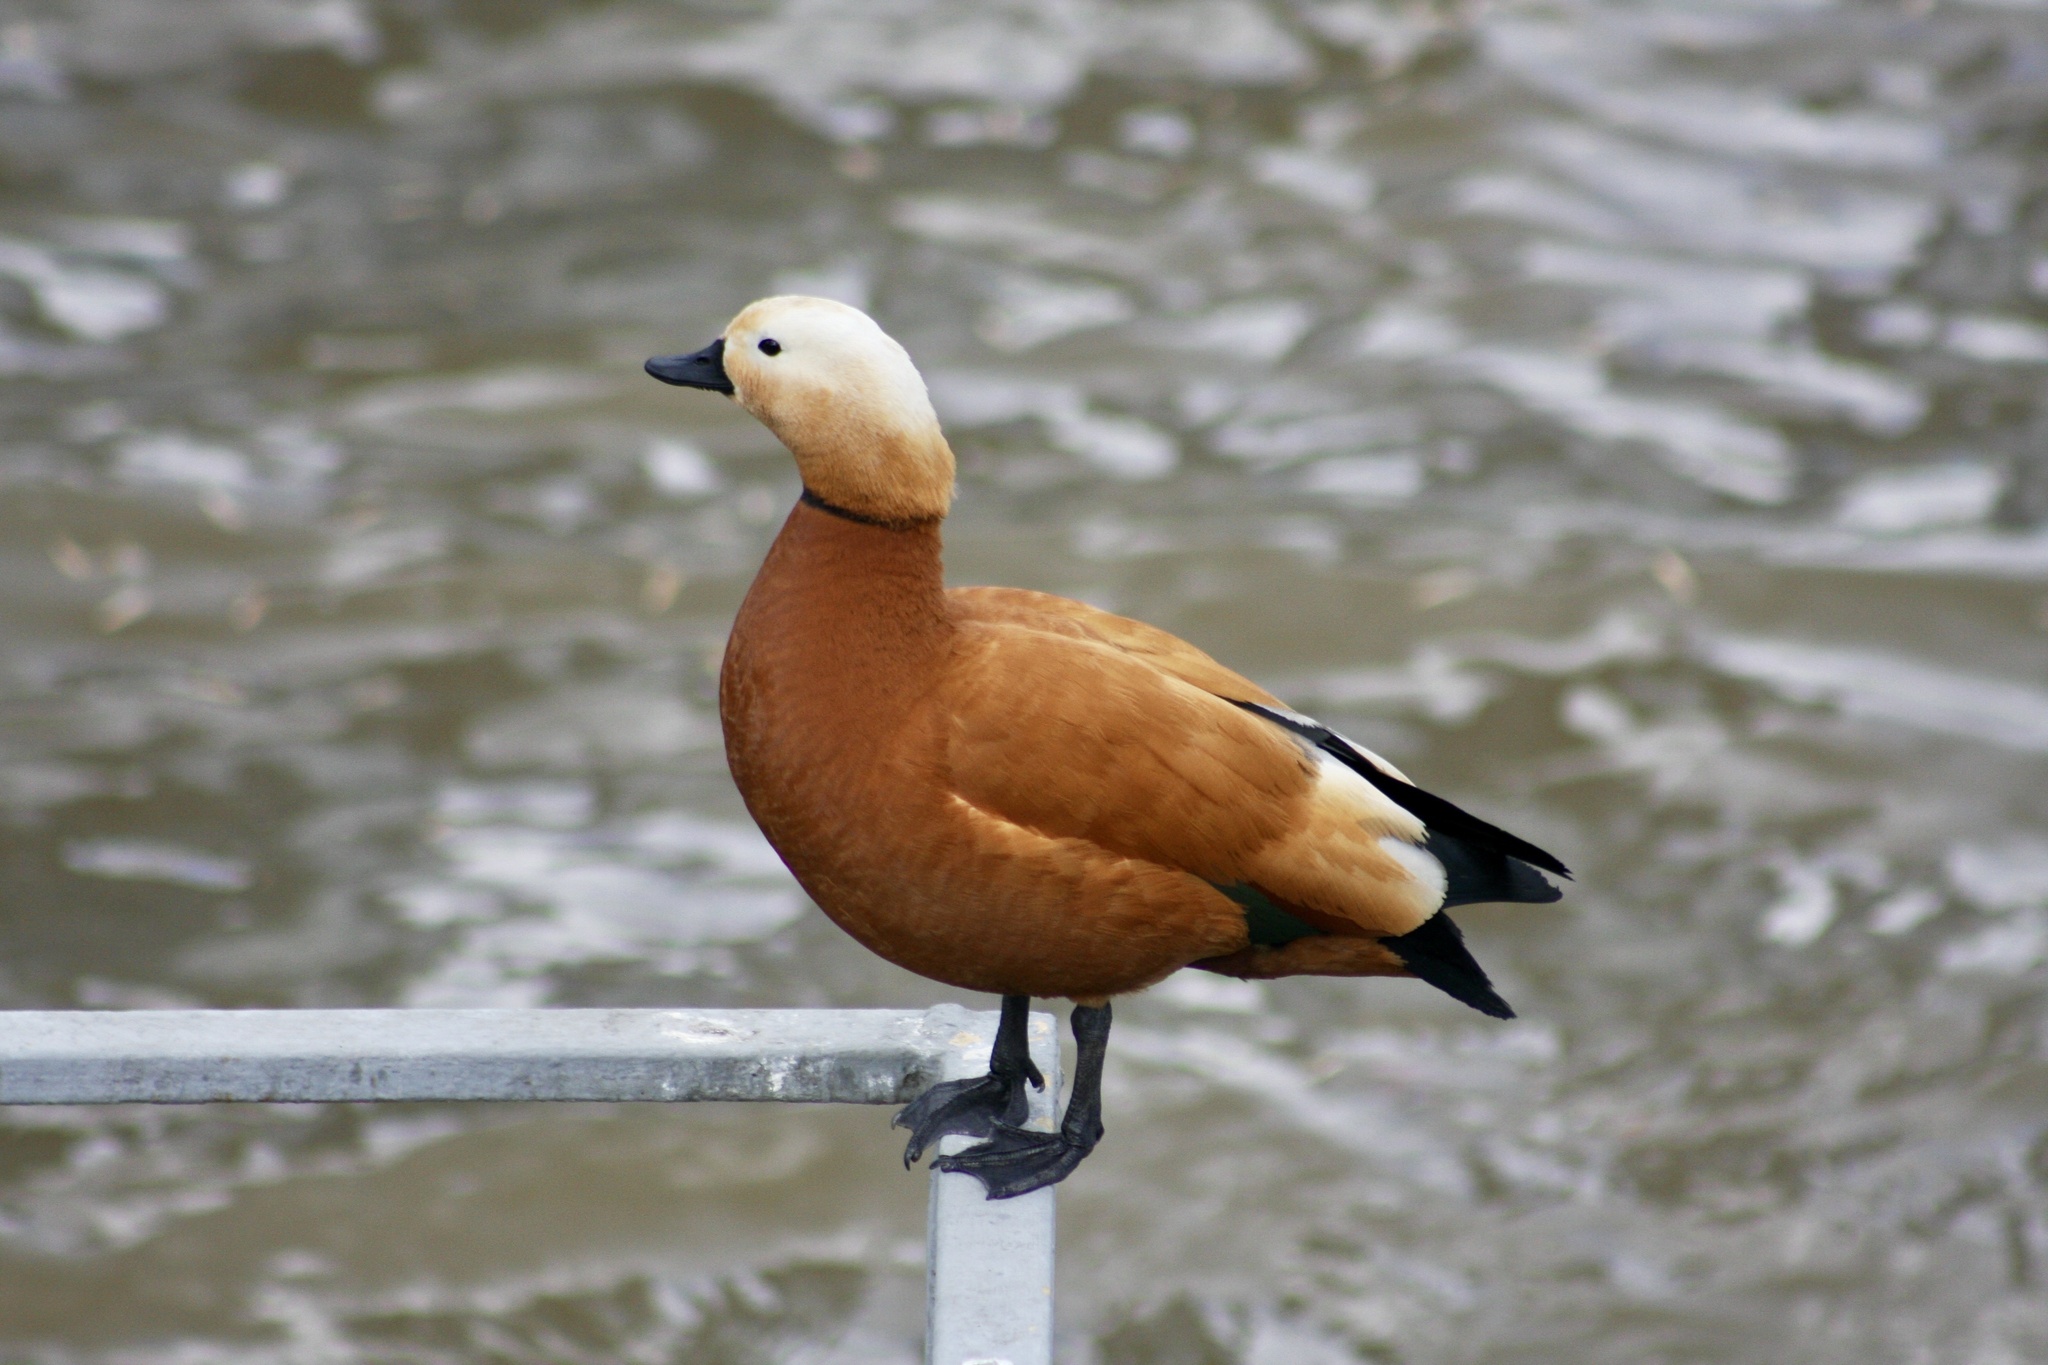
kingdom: Animalia
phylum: Chordata
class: Aves
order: Anseriformes
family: Anatidae
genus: Tadorna
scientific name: Tadorna ferruginea
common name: Ruddy shelduck
